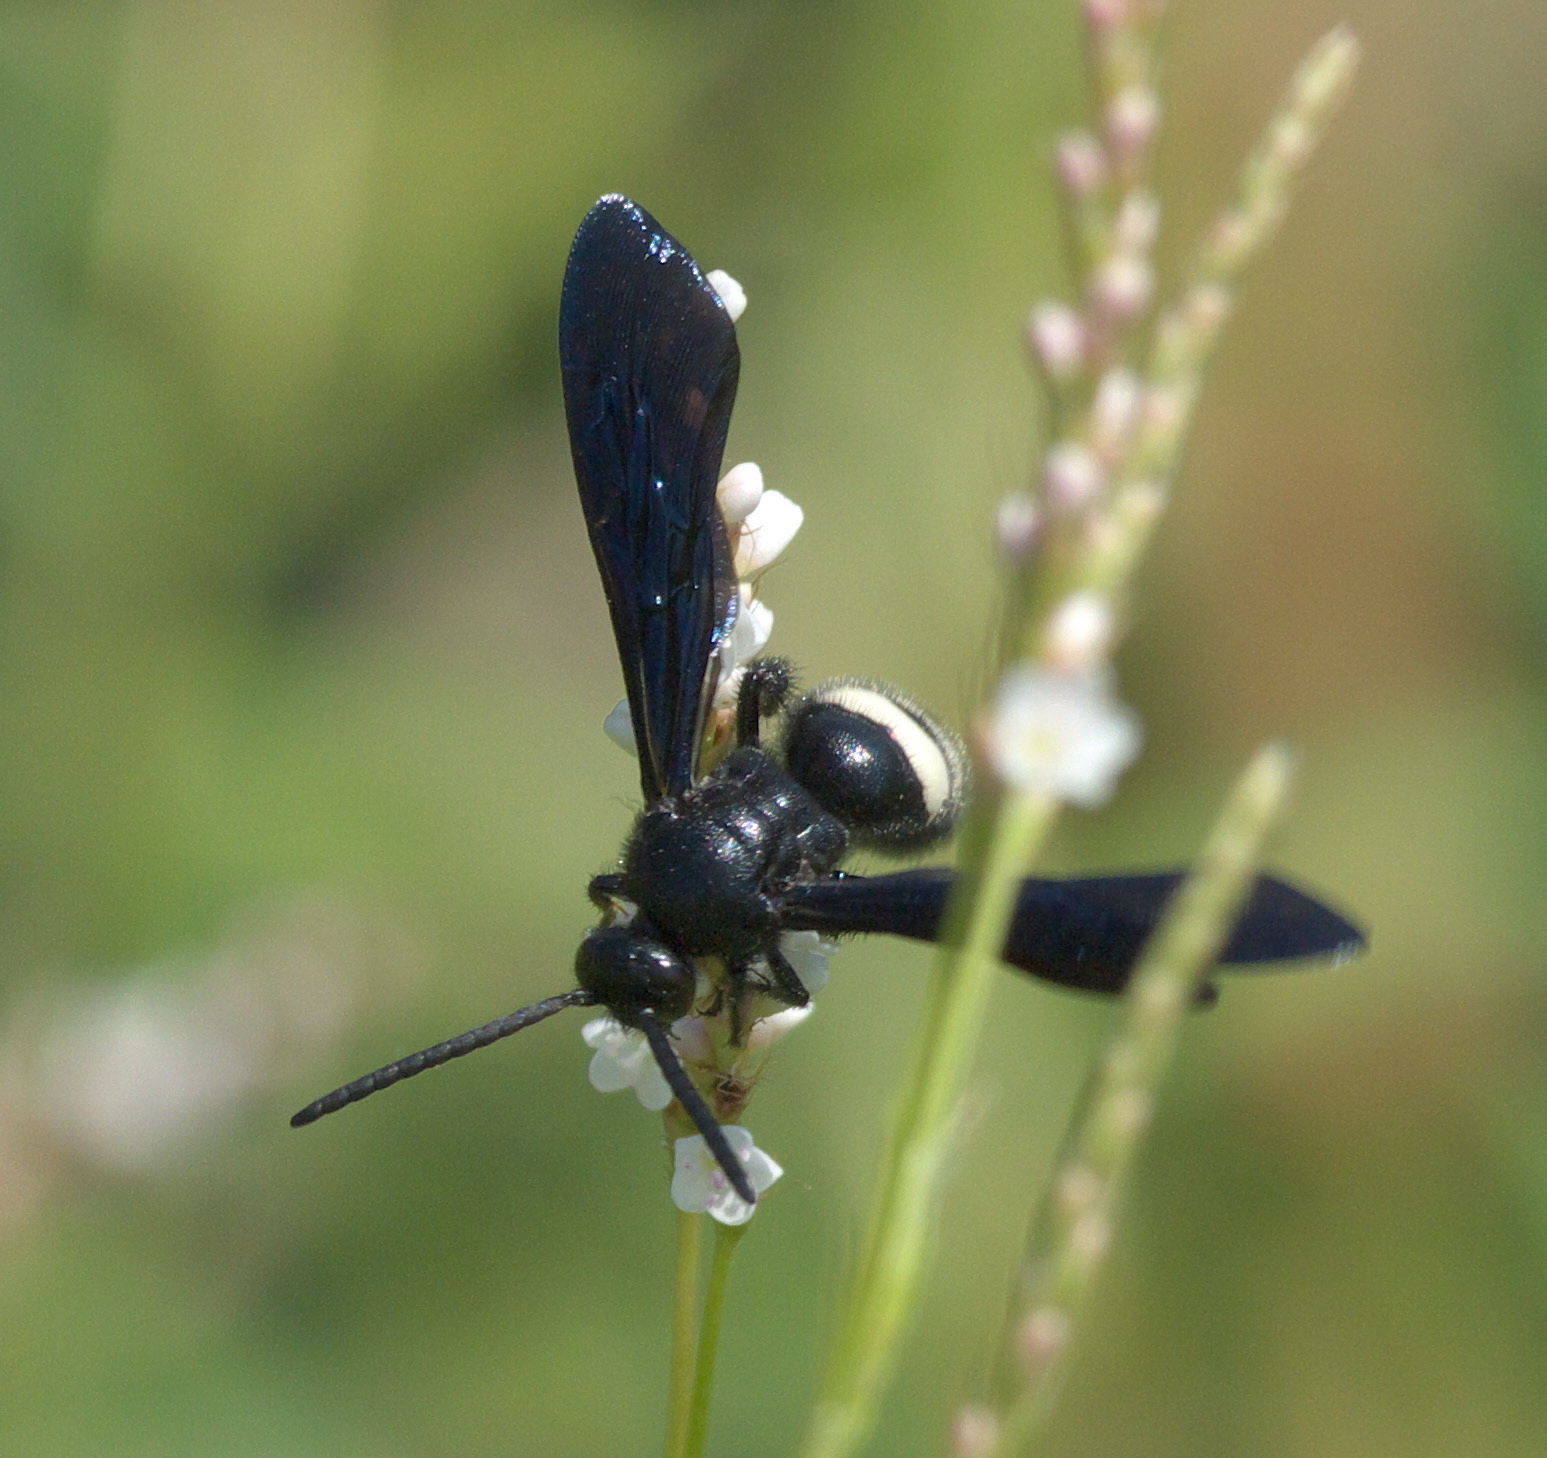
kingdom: Animalia
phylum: Arthropoda
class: Insecta
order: Hymenoptera
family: Scoliidae
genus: Scolia
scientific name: Scolia bicincta
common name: Double-banded scoliid wasp
